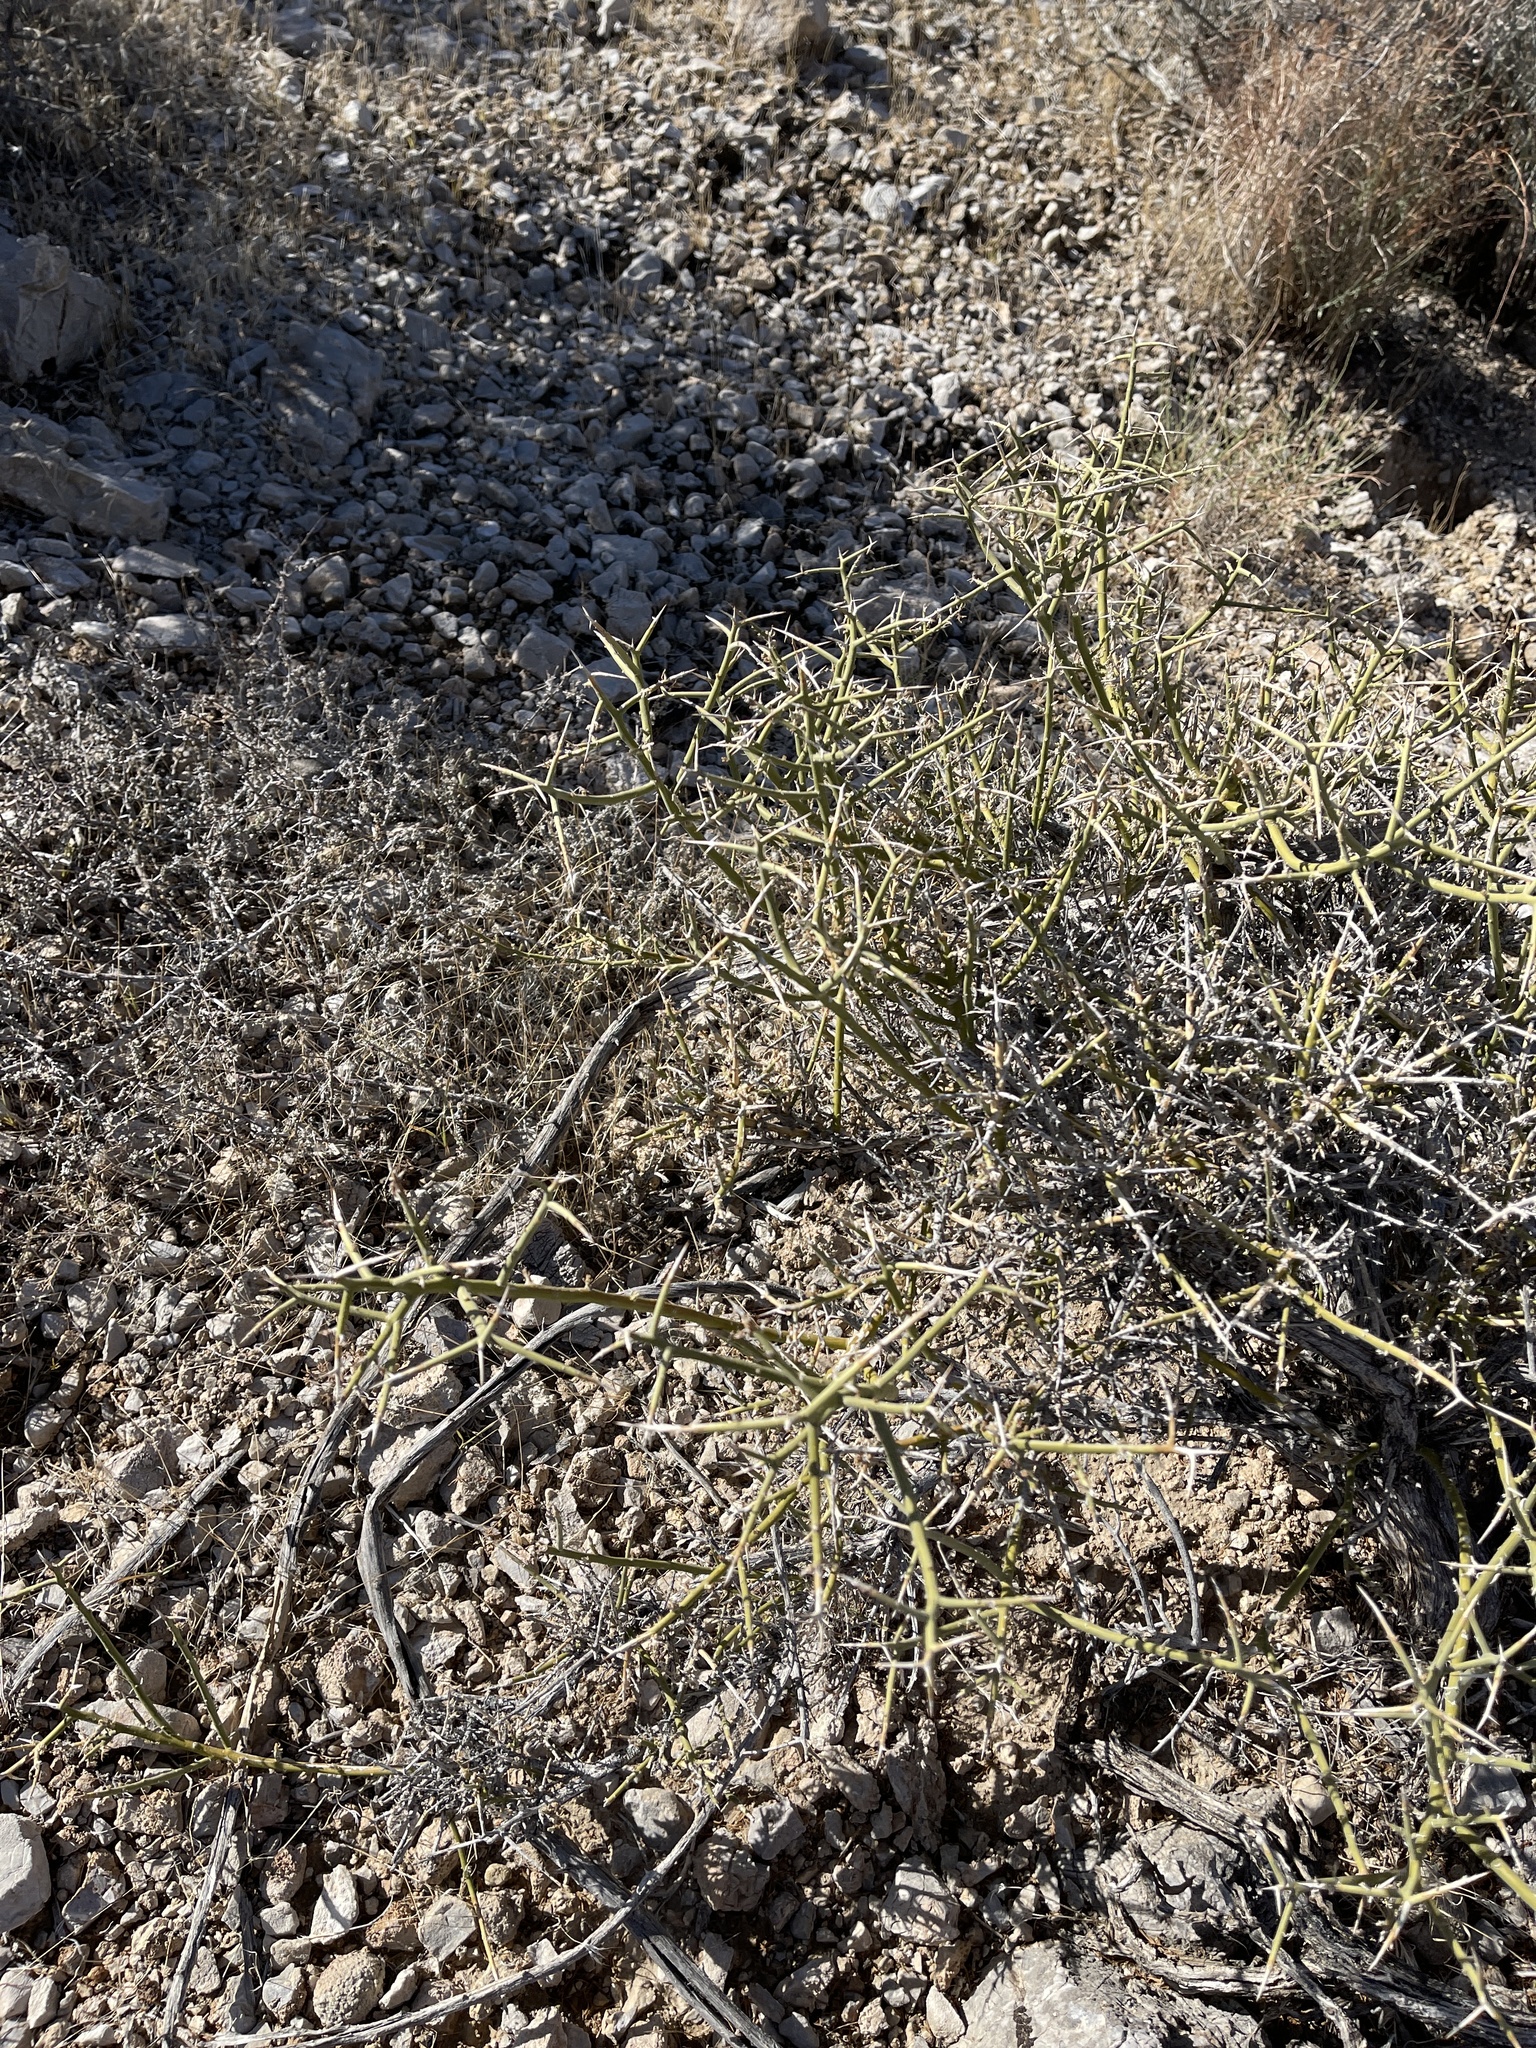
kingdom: Plantae
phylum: Tracheophyta
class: Magnoliopsida
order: Lamiales
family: Oleaceae
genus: Menodora
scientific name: Menodora spinescens
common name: Spiny menodora
